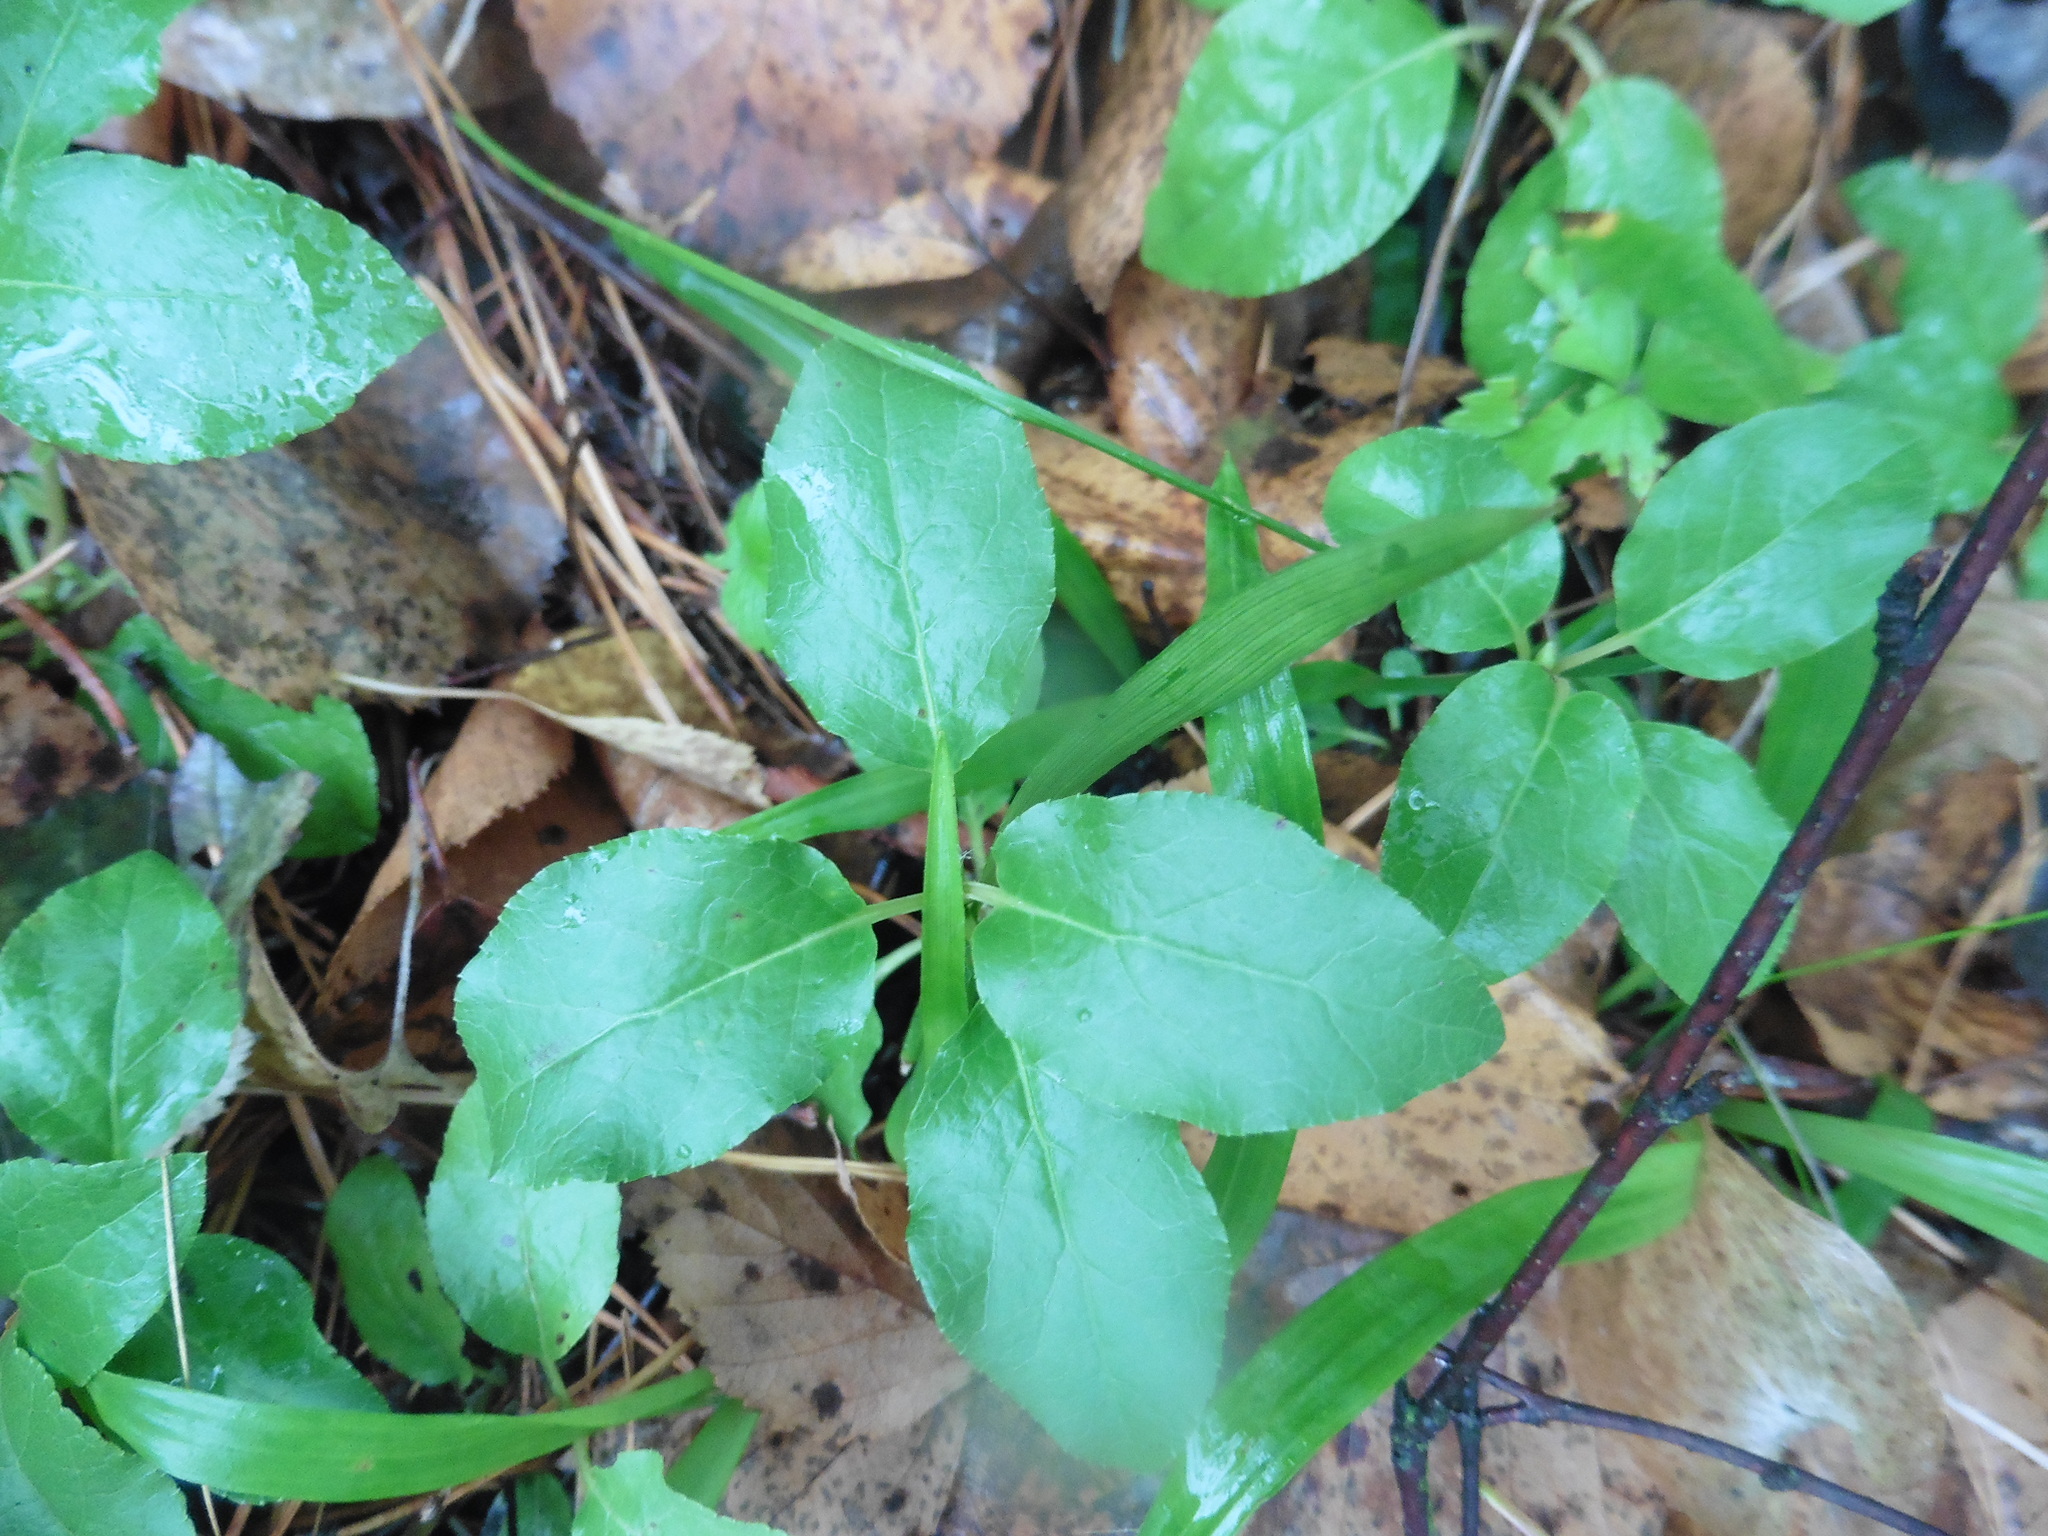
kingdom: Plantae
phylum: Tracheophyta
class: Magnoliopsida
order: Ericales
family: Ericaceae
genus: Orthilia
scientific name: Orthilia secunda
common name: One-sided orthilia
